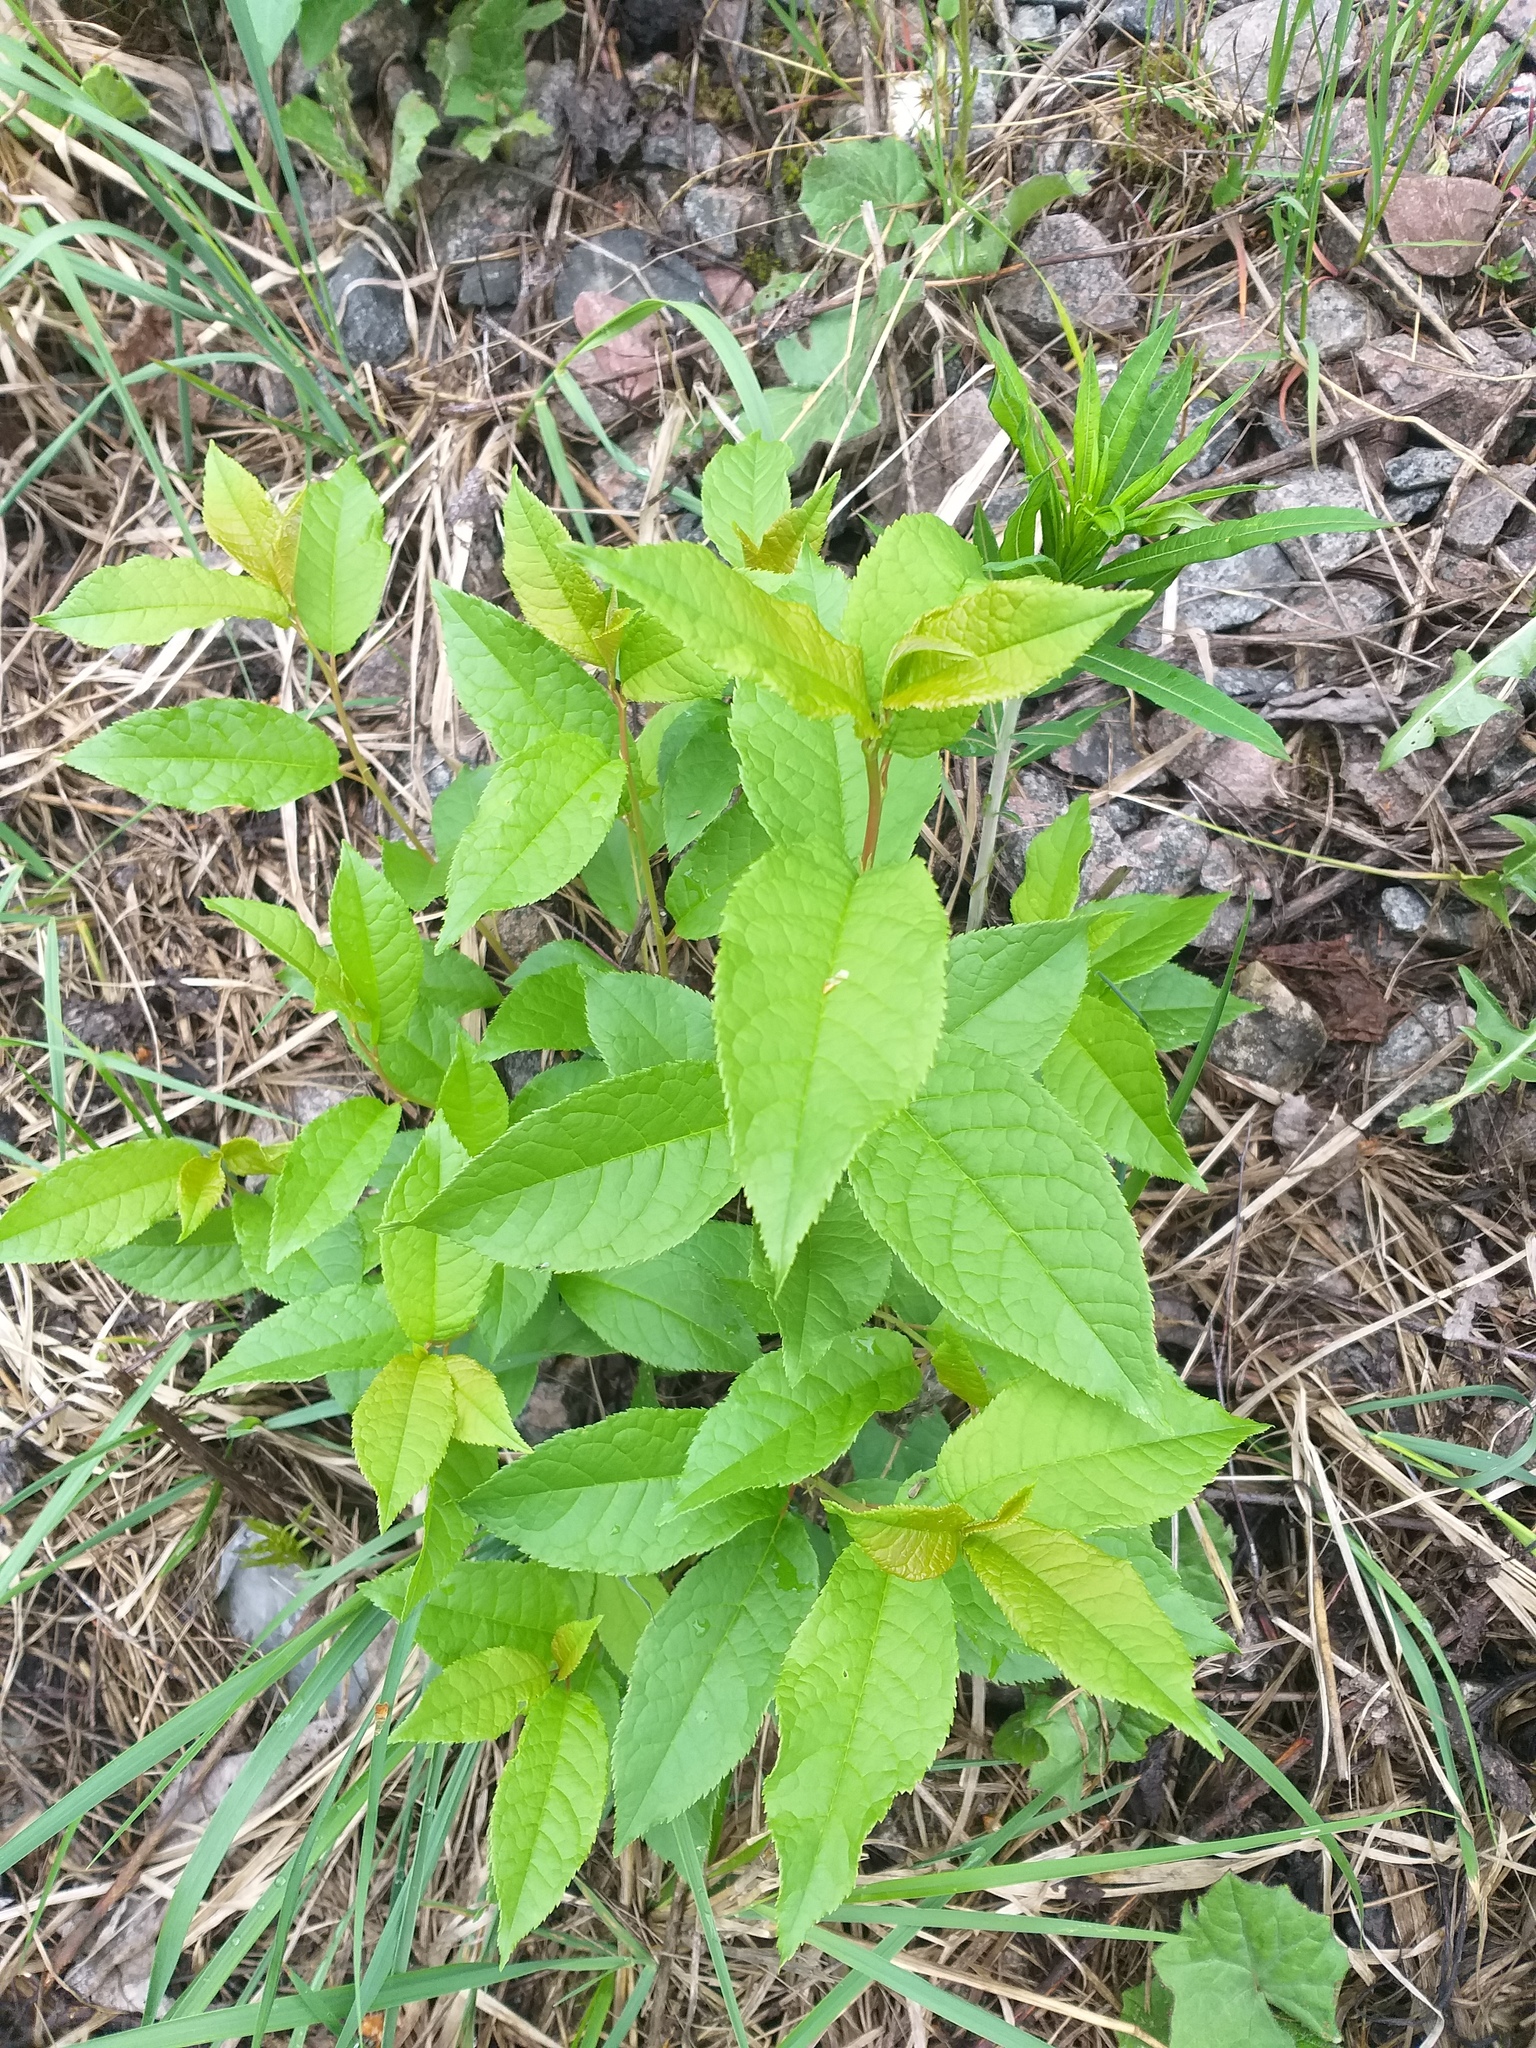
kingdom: Plantae
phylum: Tracheophyta
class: Magnoliopsida
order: Rosales
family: Rosaceae
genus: Prunus
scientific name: Prunus padus
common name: Bird cherry
